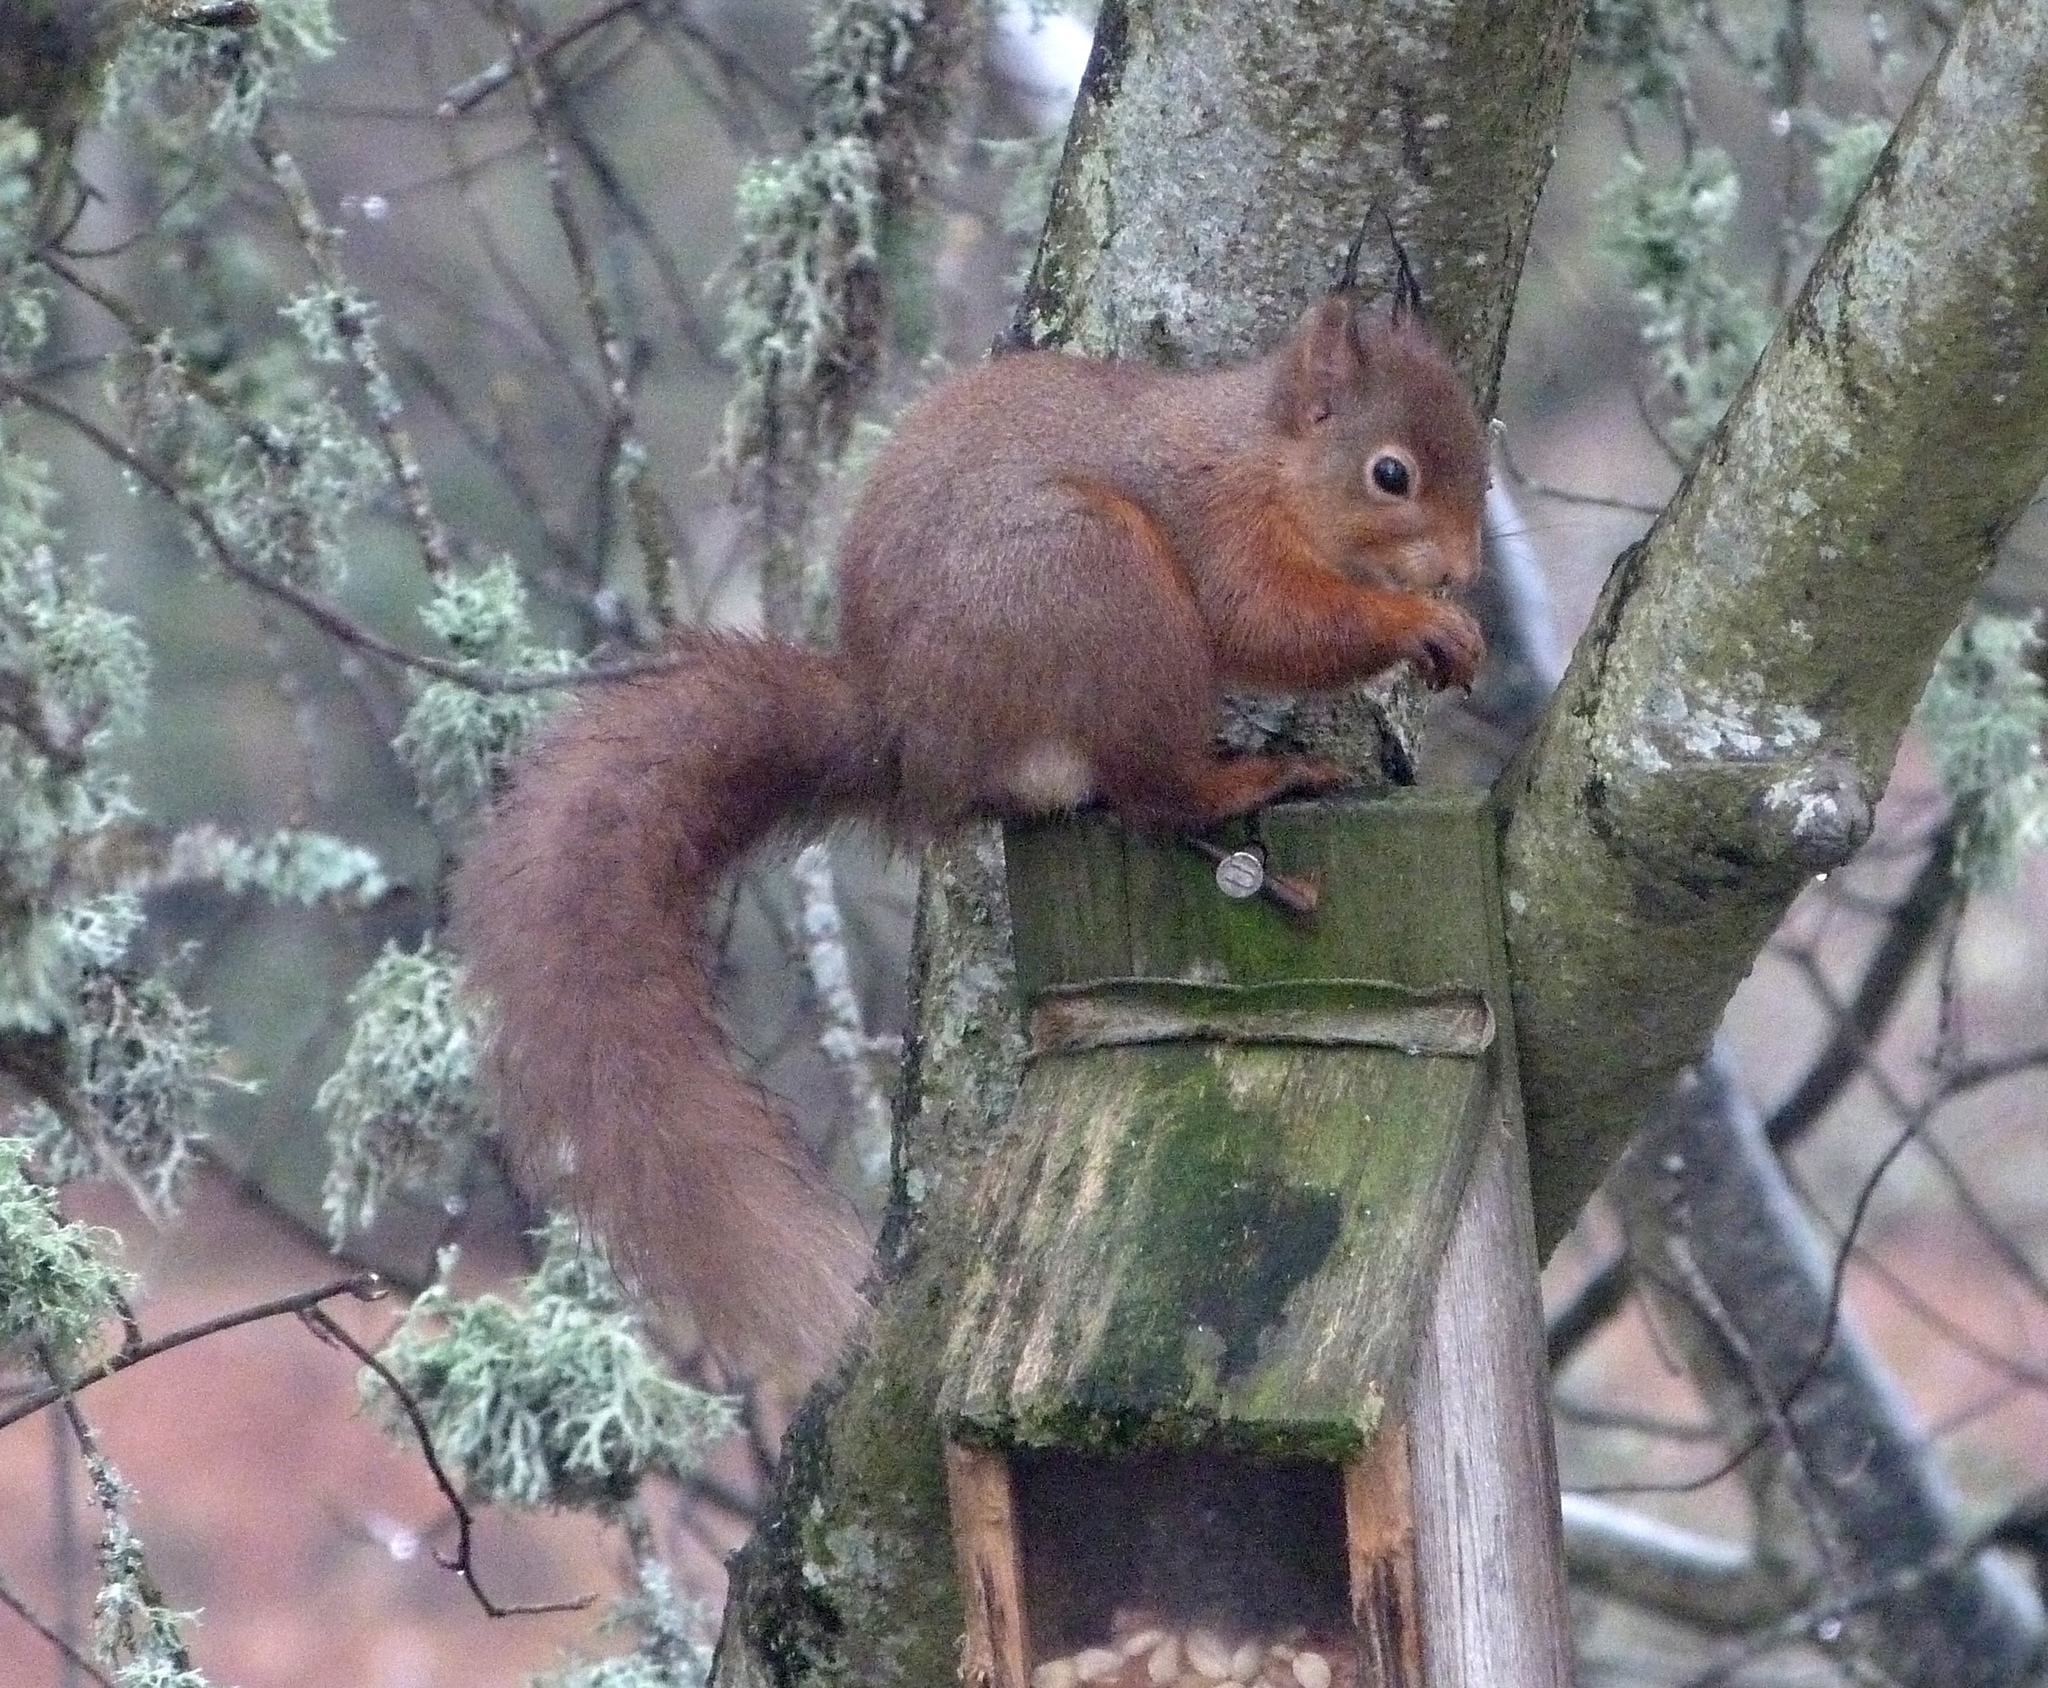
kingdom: Animalia
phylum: Chordata
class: Mammalia
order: Rodentia
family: Sciuridae
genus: Sciurus
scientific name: Sciurus vulgaris
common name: Eurasian red squirrel
